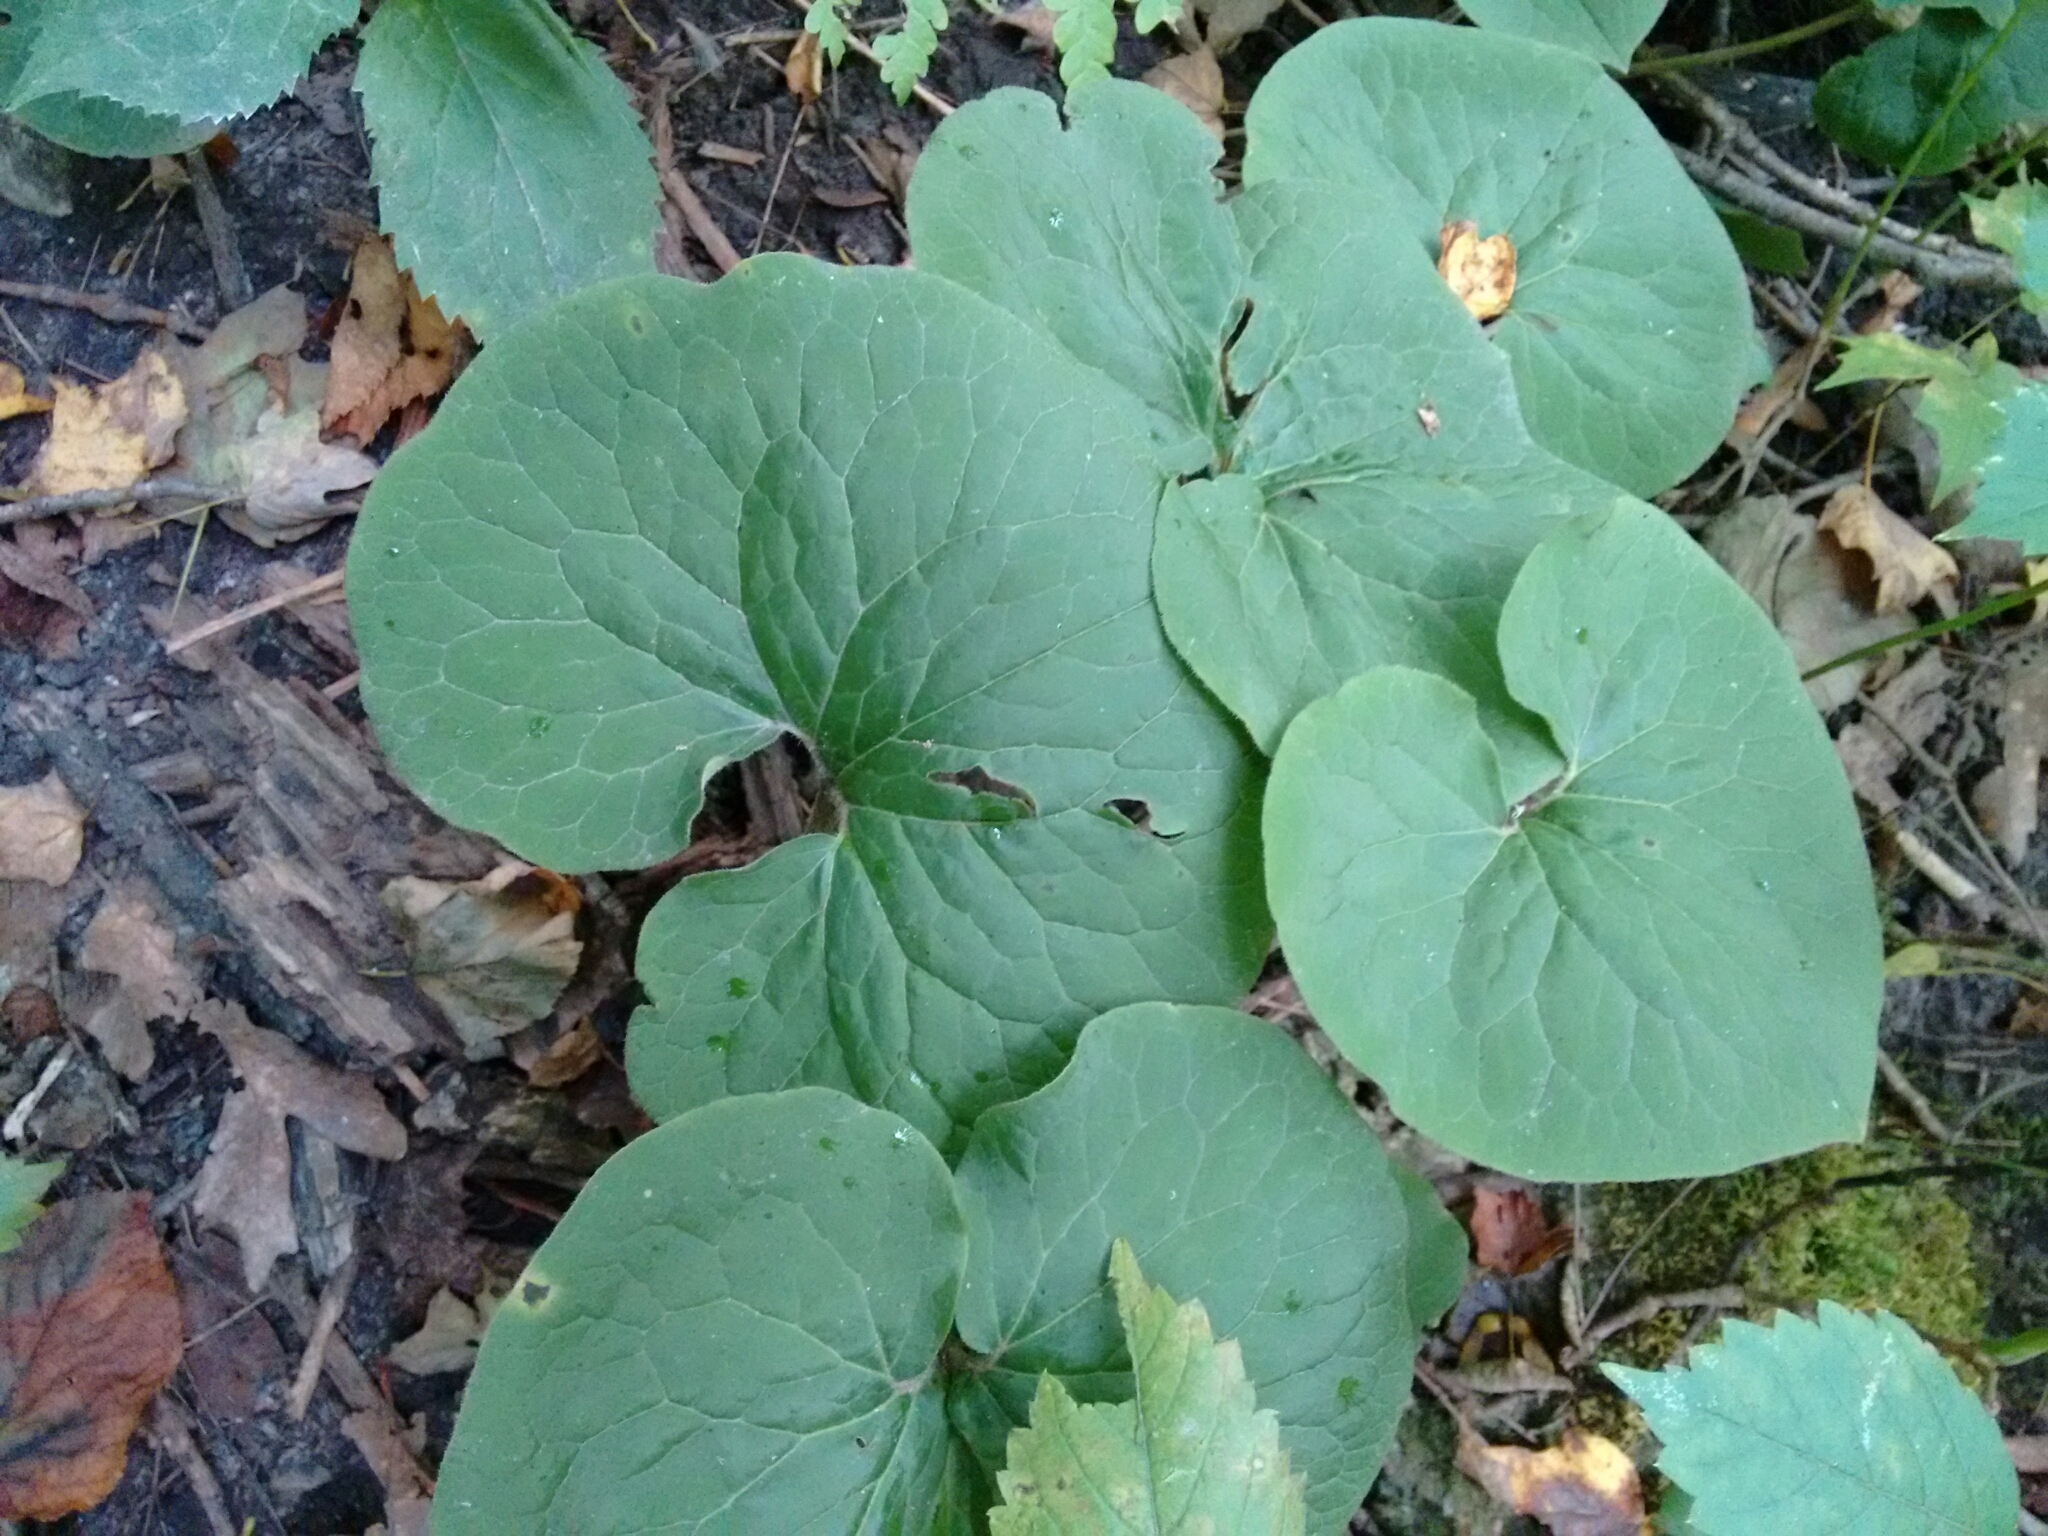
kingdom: Plantae
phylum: Tracheophyta
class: Magnoliopsida
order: Piperales
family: Aristolochiaceae
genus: Asarum
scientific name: Asarum canadense
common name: Wild ginger
